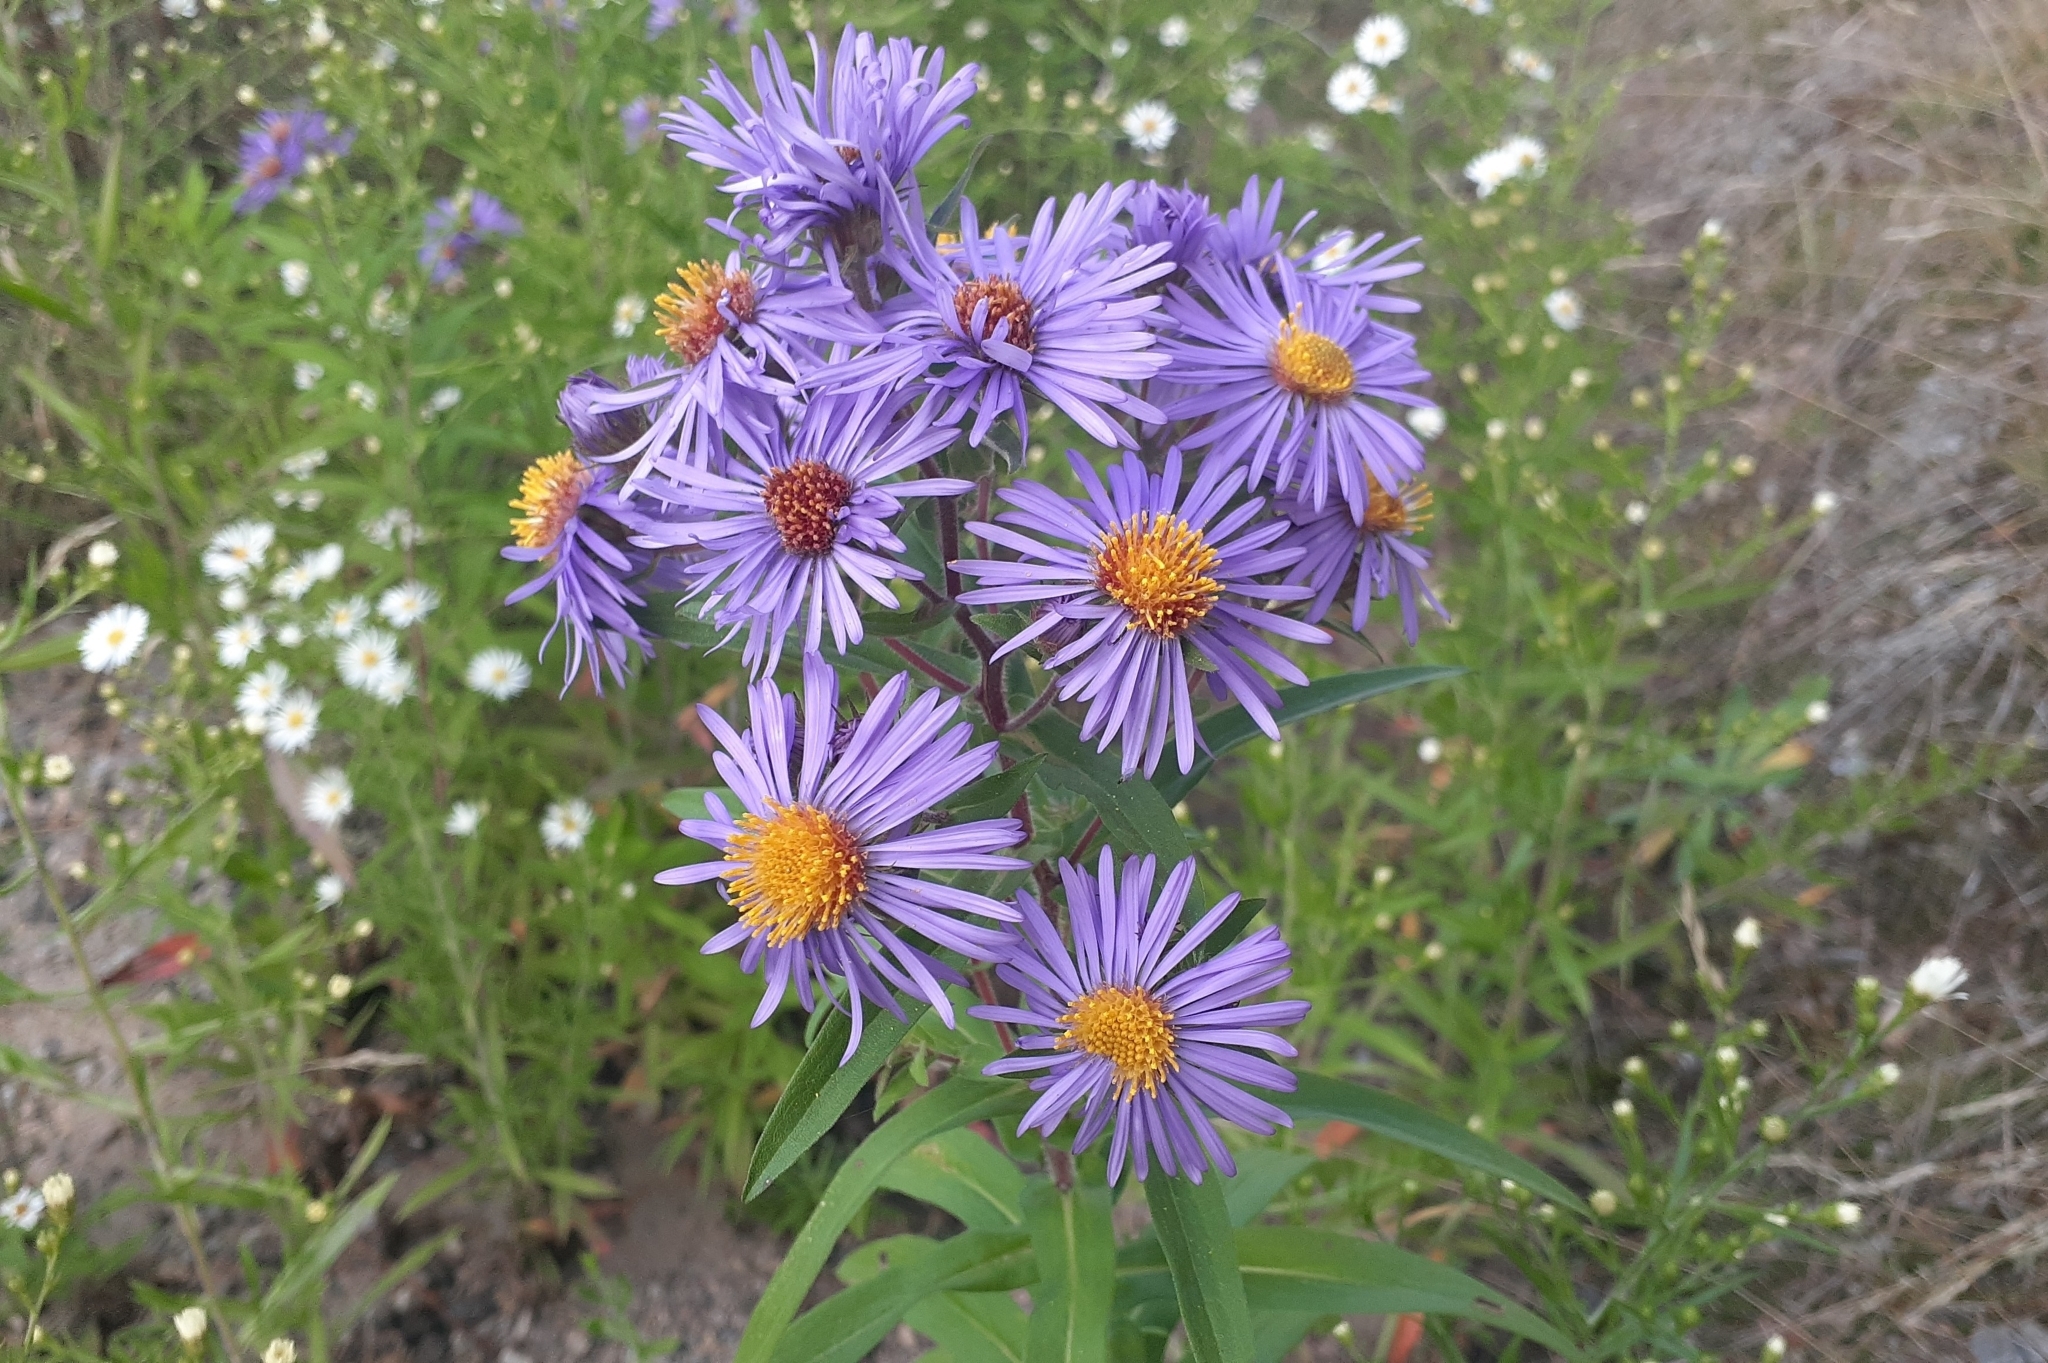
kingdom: Plantae
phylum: Tracheophyta
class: Magnoliopsida
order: Asterales
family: Asteraceae
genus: Symphyotrichum
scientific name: Symphyotrichum novae-angliae
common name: Michaelmas daisy
